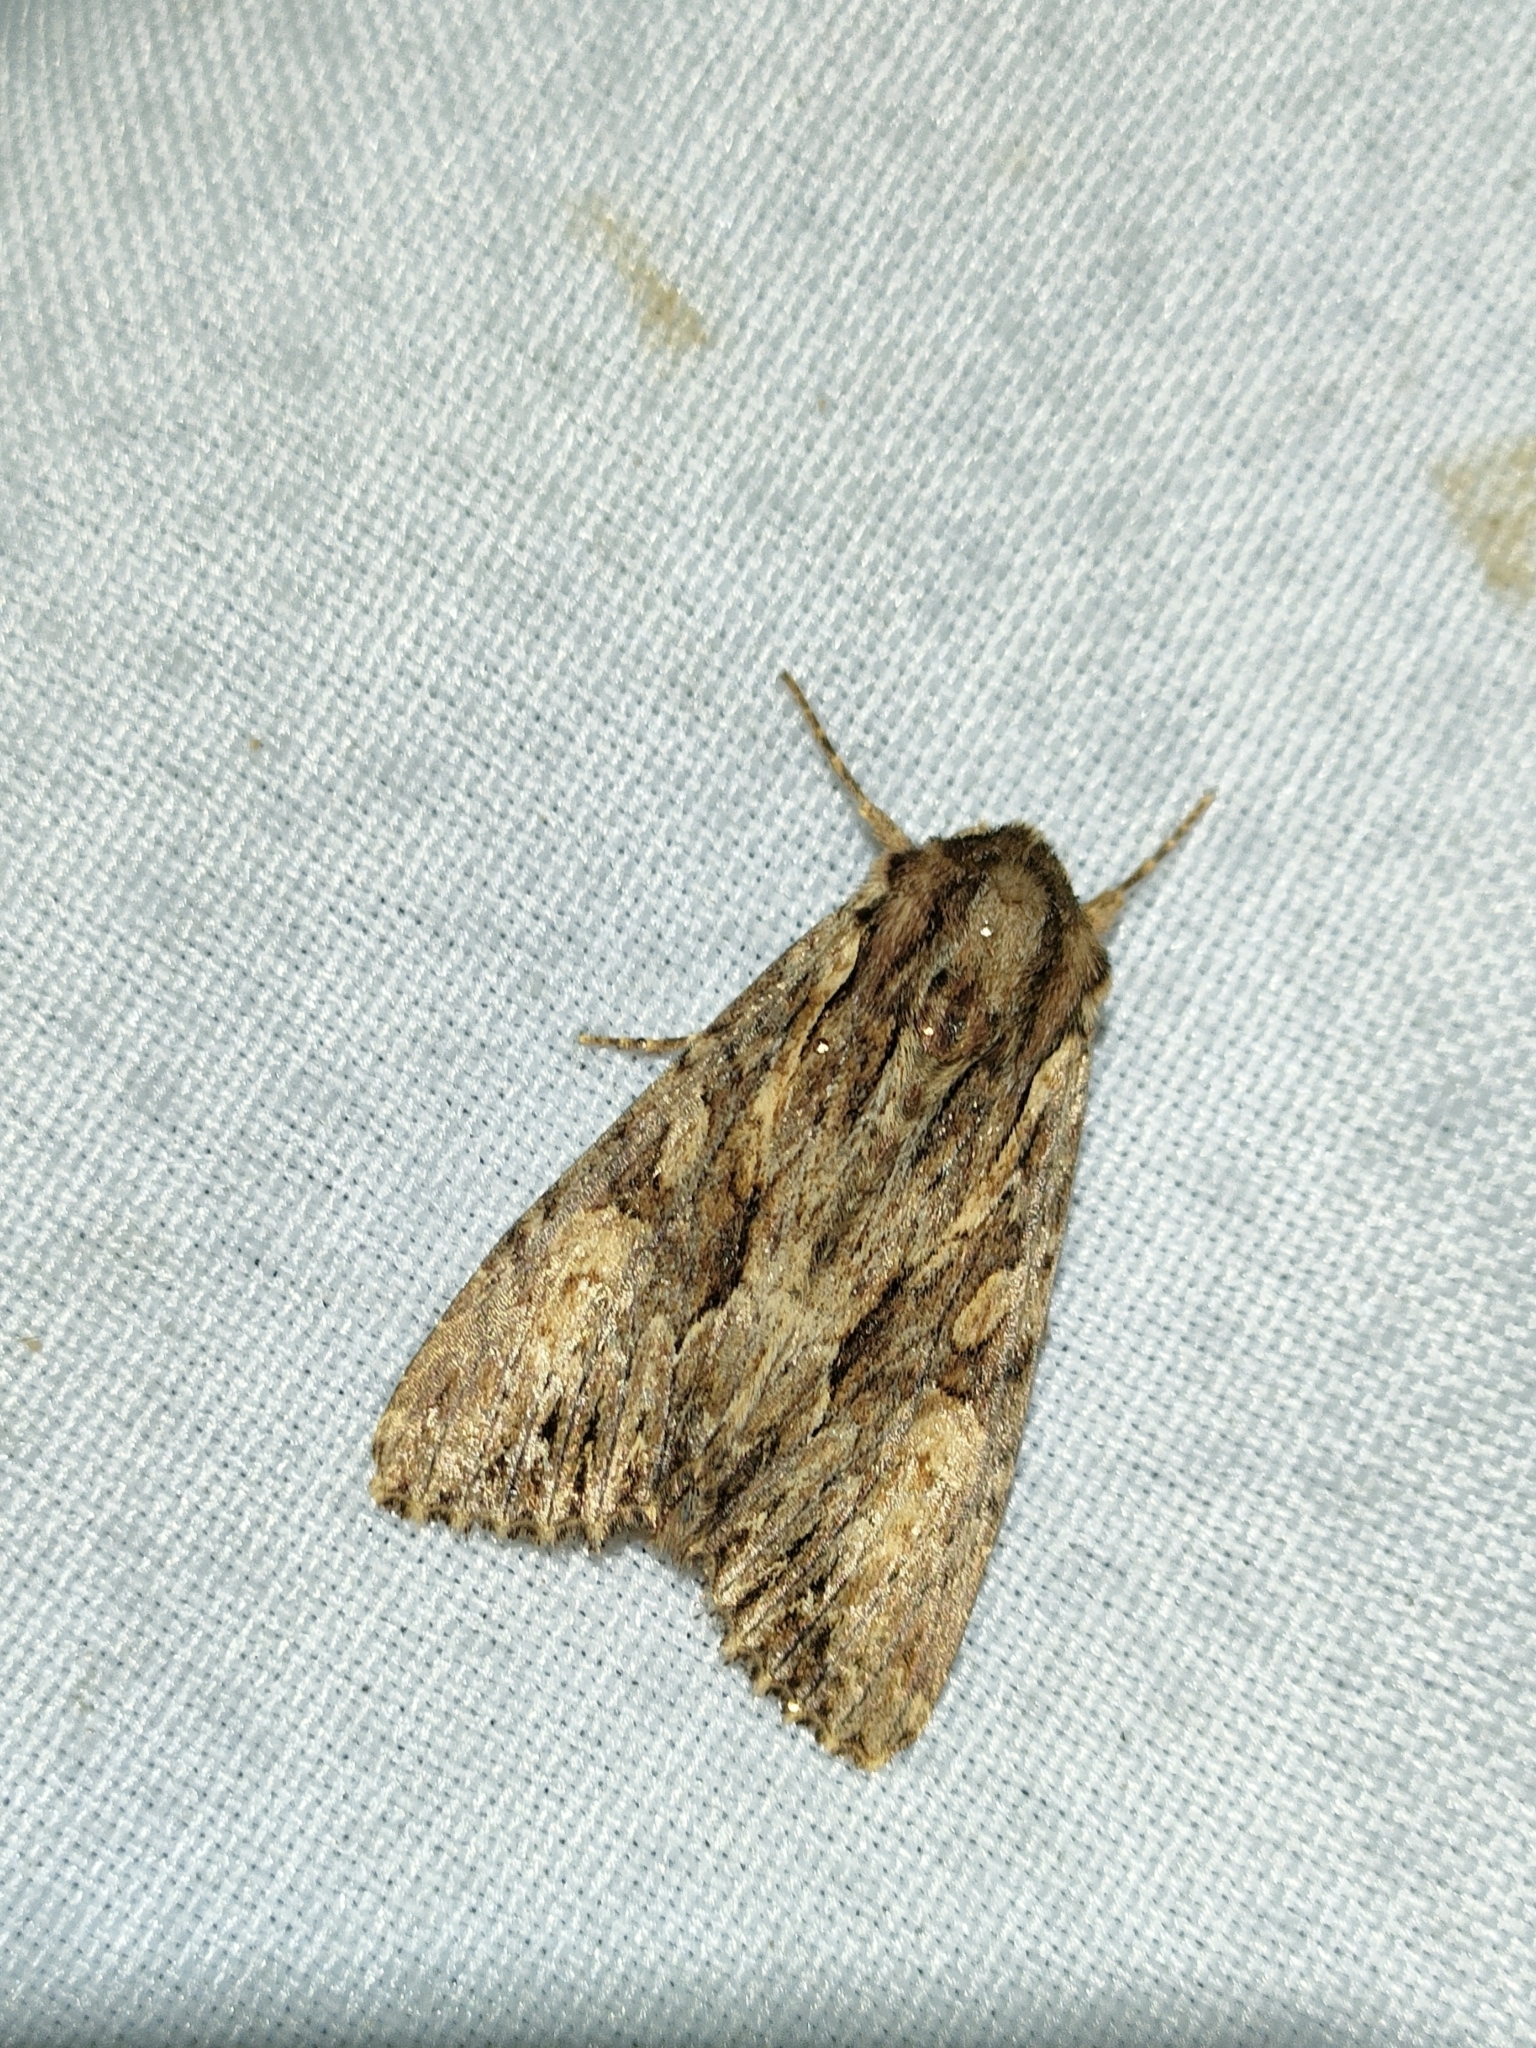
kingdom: Animalia
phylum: Arthropoda
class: Insecta
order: Lepidoptera
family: Noctuidae
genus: Apamea
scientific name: Apamea monoglypha
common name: Dark arches
